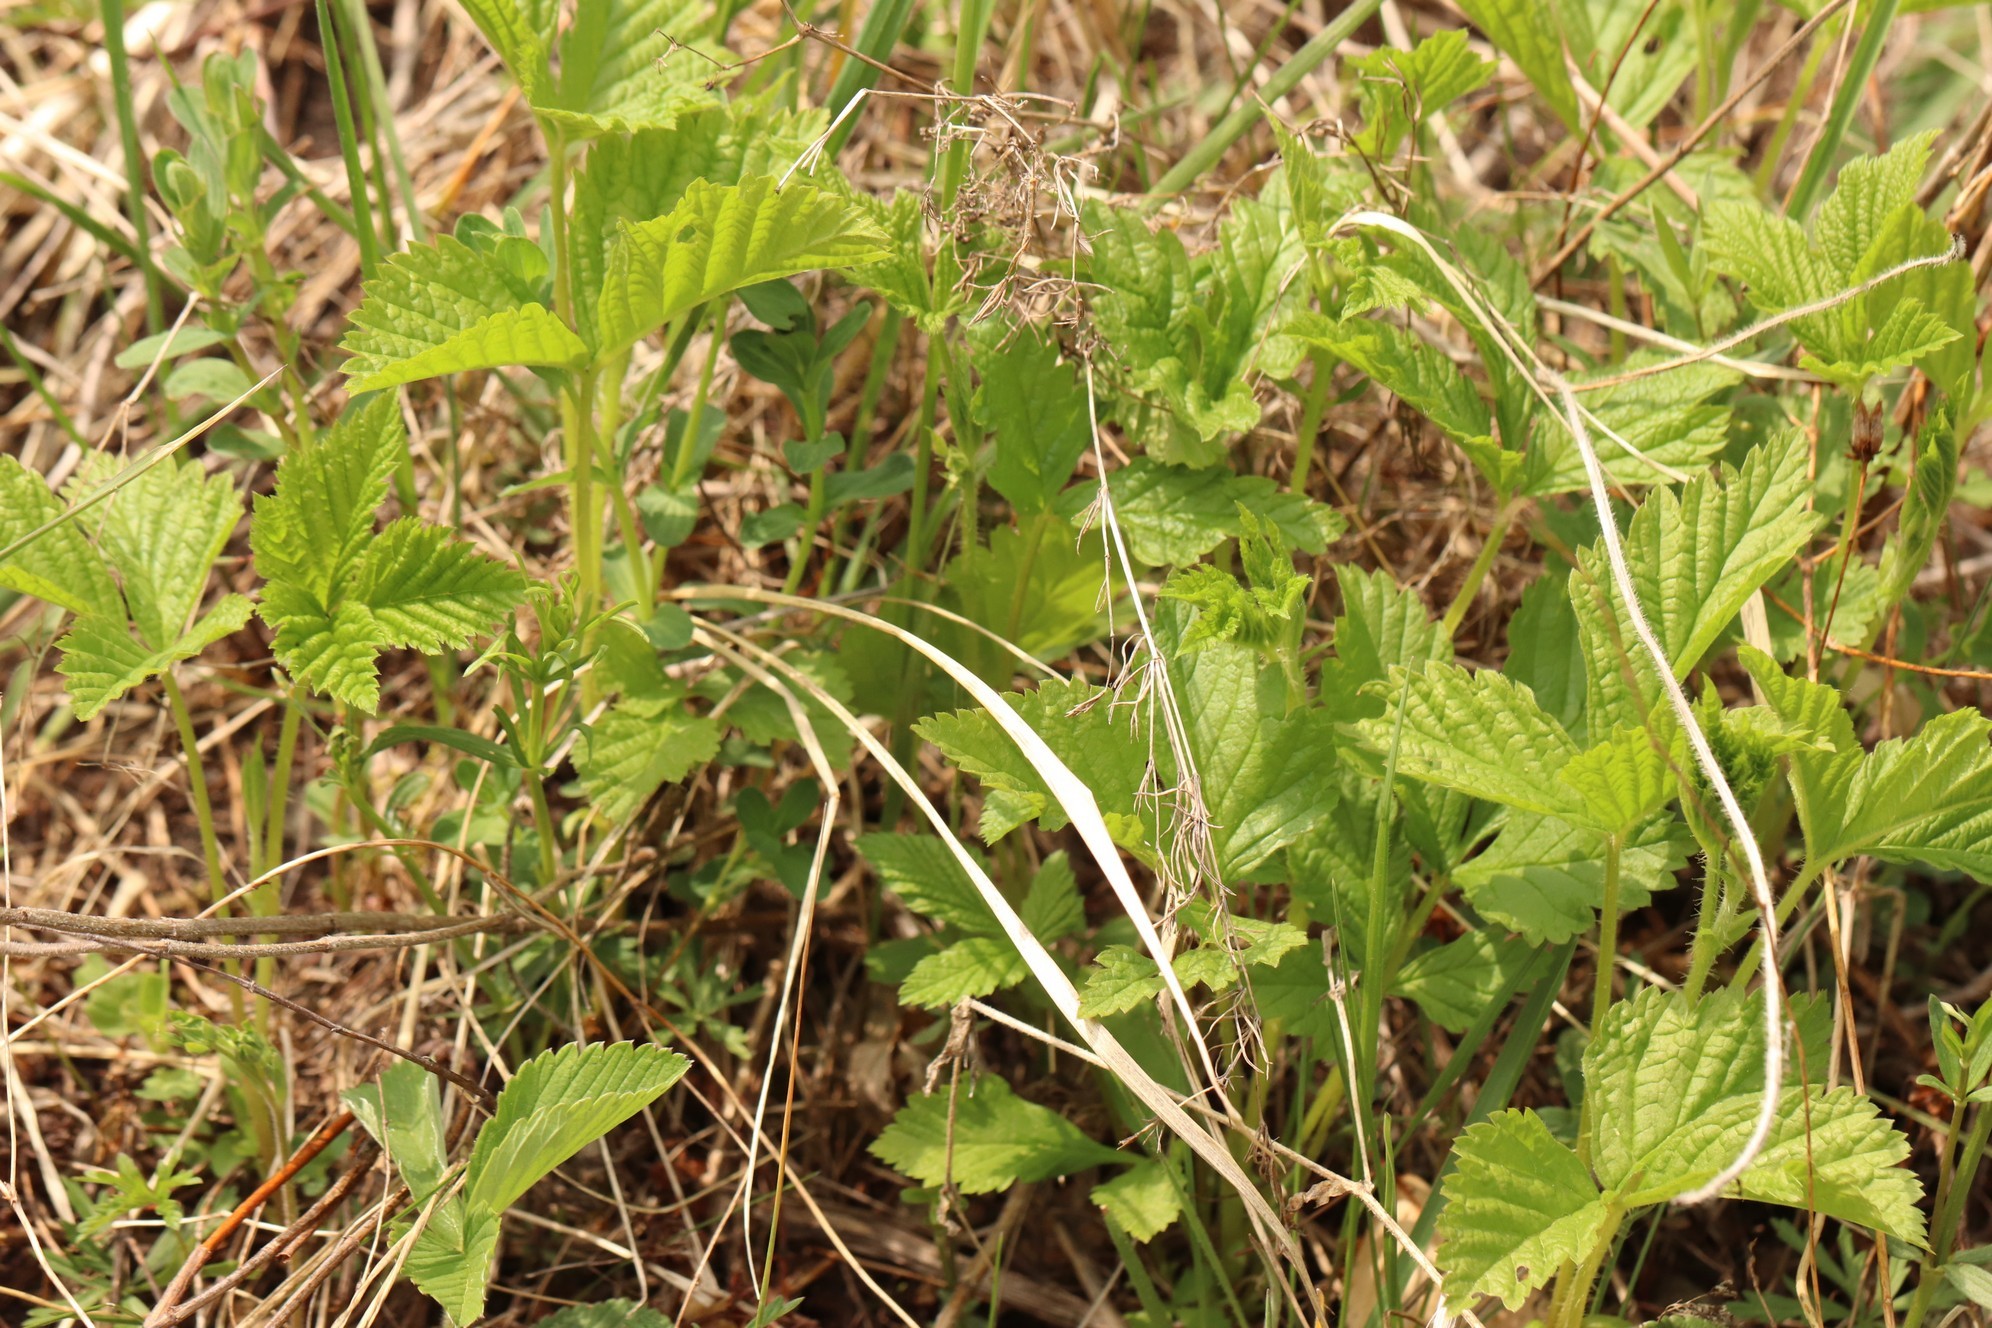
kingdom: Plantae
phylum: Tracheophyta
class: Magnoliopsida
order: Rosales
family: Rosaceae
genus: Rubus
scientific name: Rubus saxatilis
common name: Stone bramble
